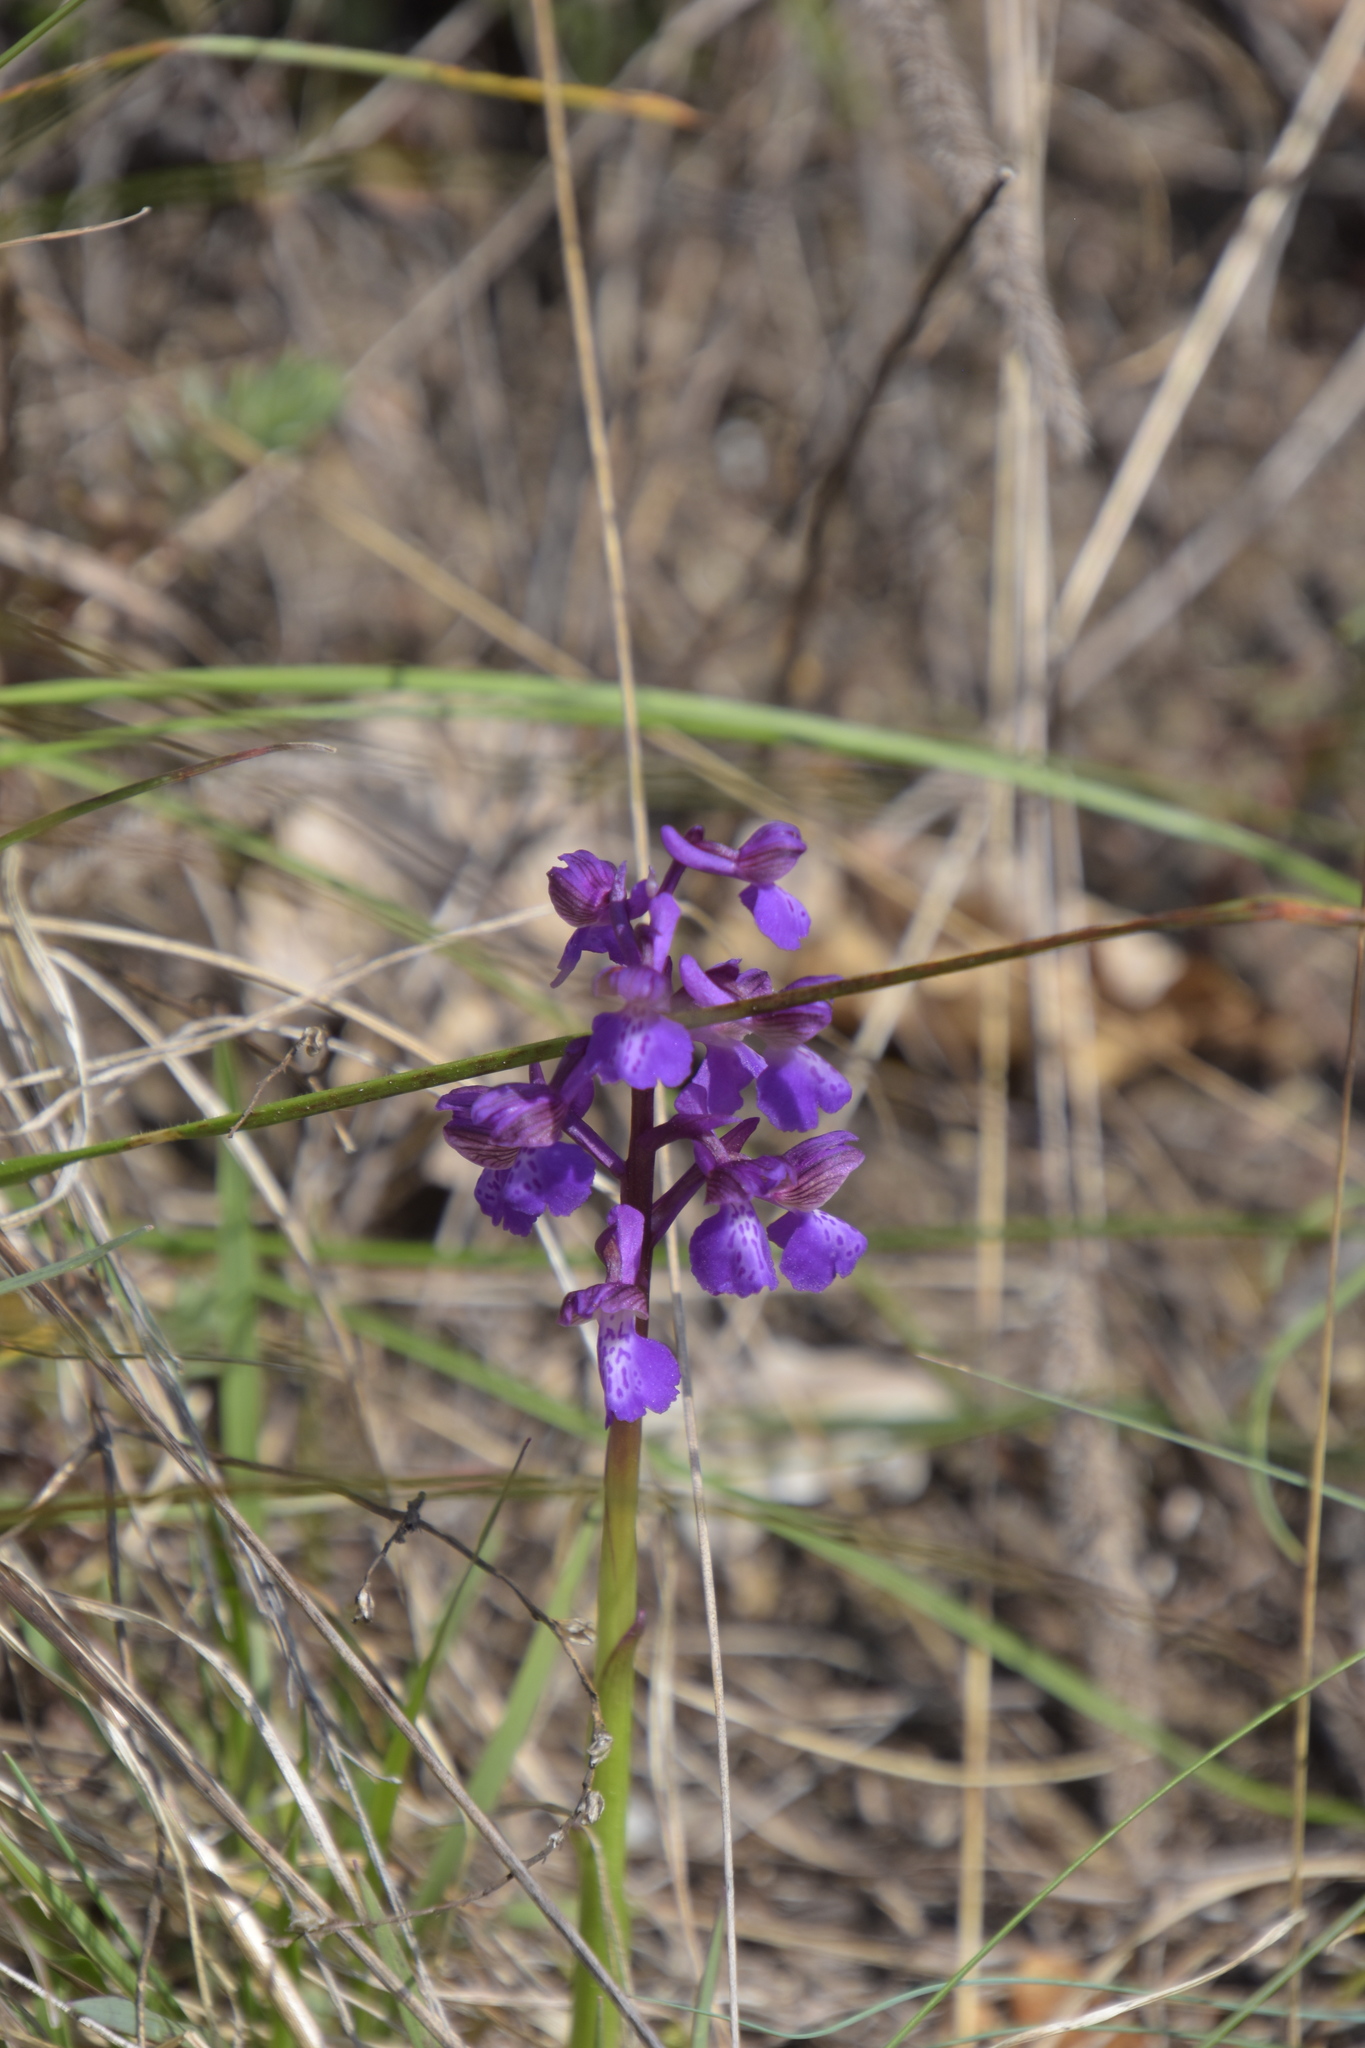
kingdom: Plantae
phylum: Tracheophyta
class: Liliopsida
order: Asparagales
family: Orchidaceae
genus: Anacamptis
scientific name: Anacamptis morio
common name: Green-winged orchid
